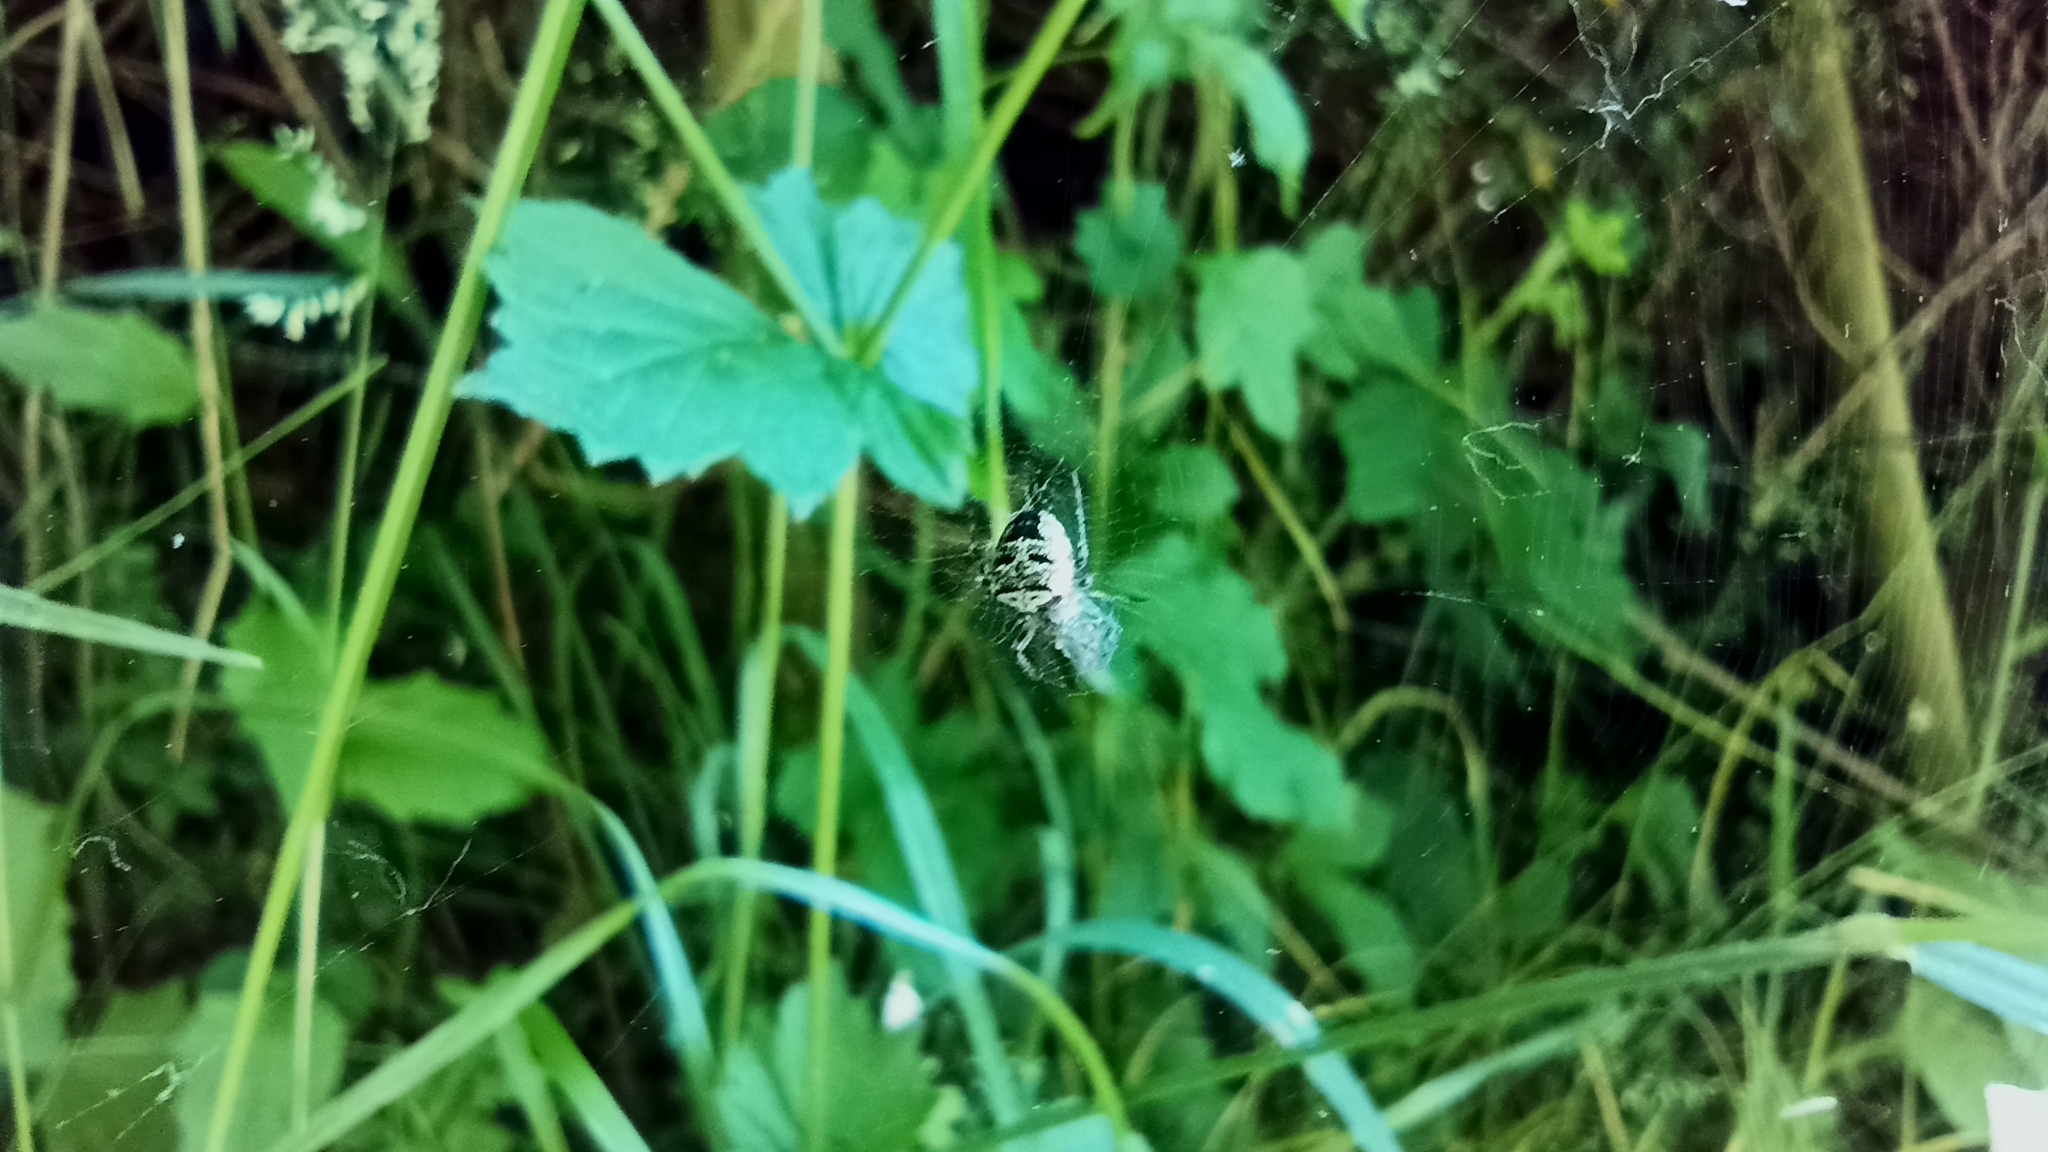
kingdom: Animalia
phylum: Arthropoda
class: Arachnida
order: Araneae
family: Araneidae
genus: Zilla
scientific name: Zilla diodia
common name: Zilla diodia
